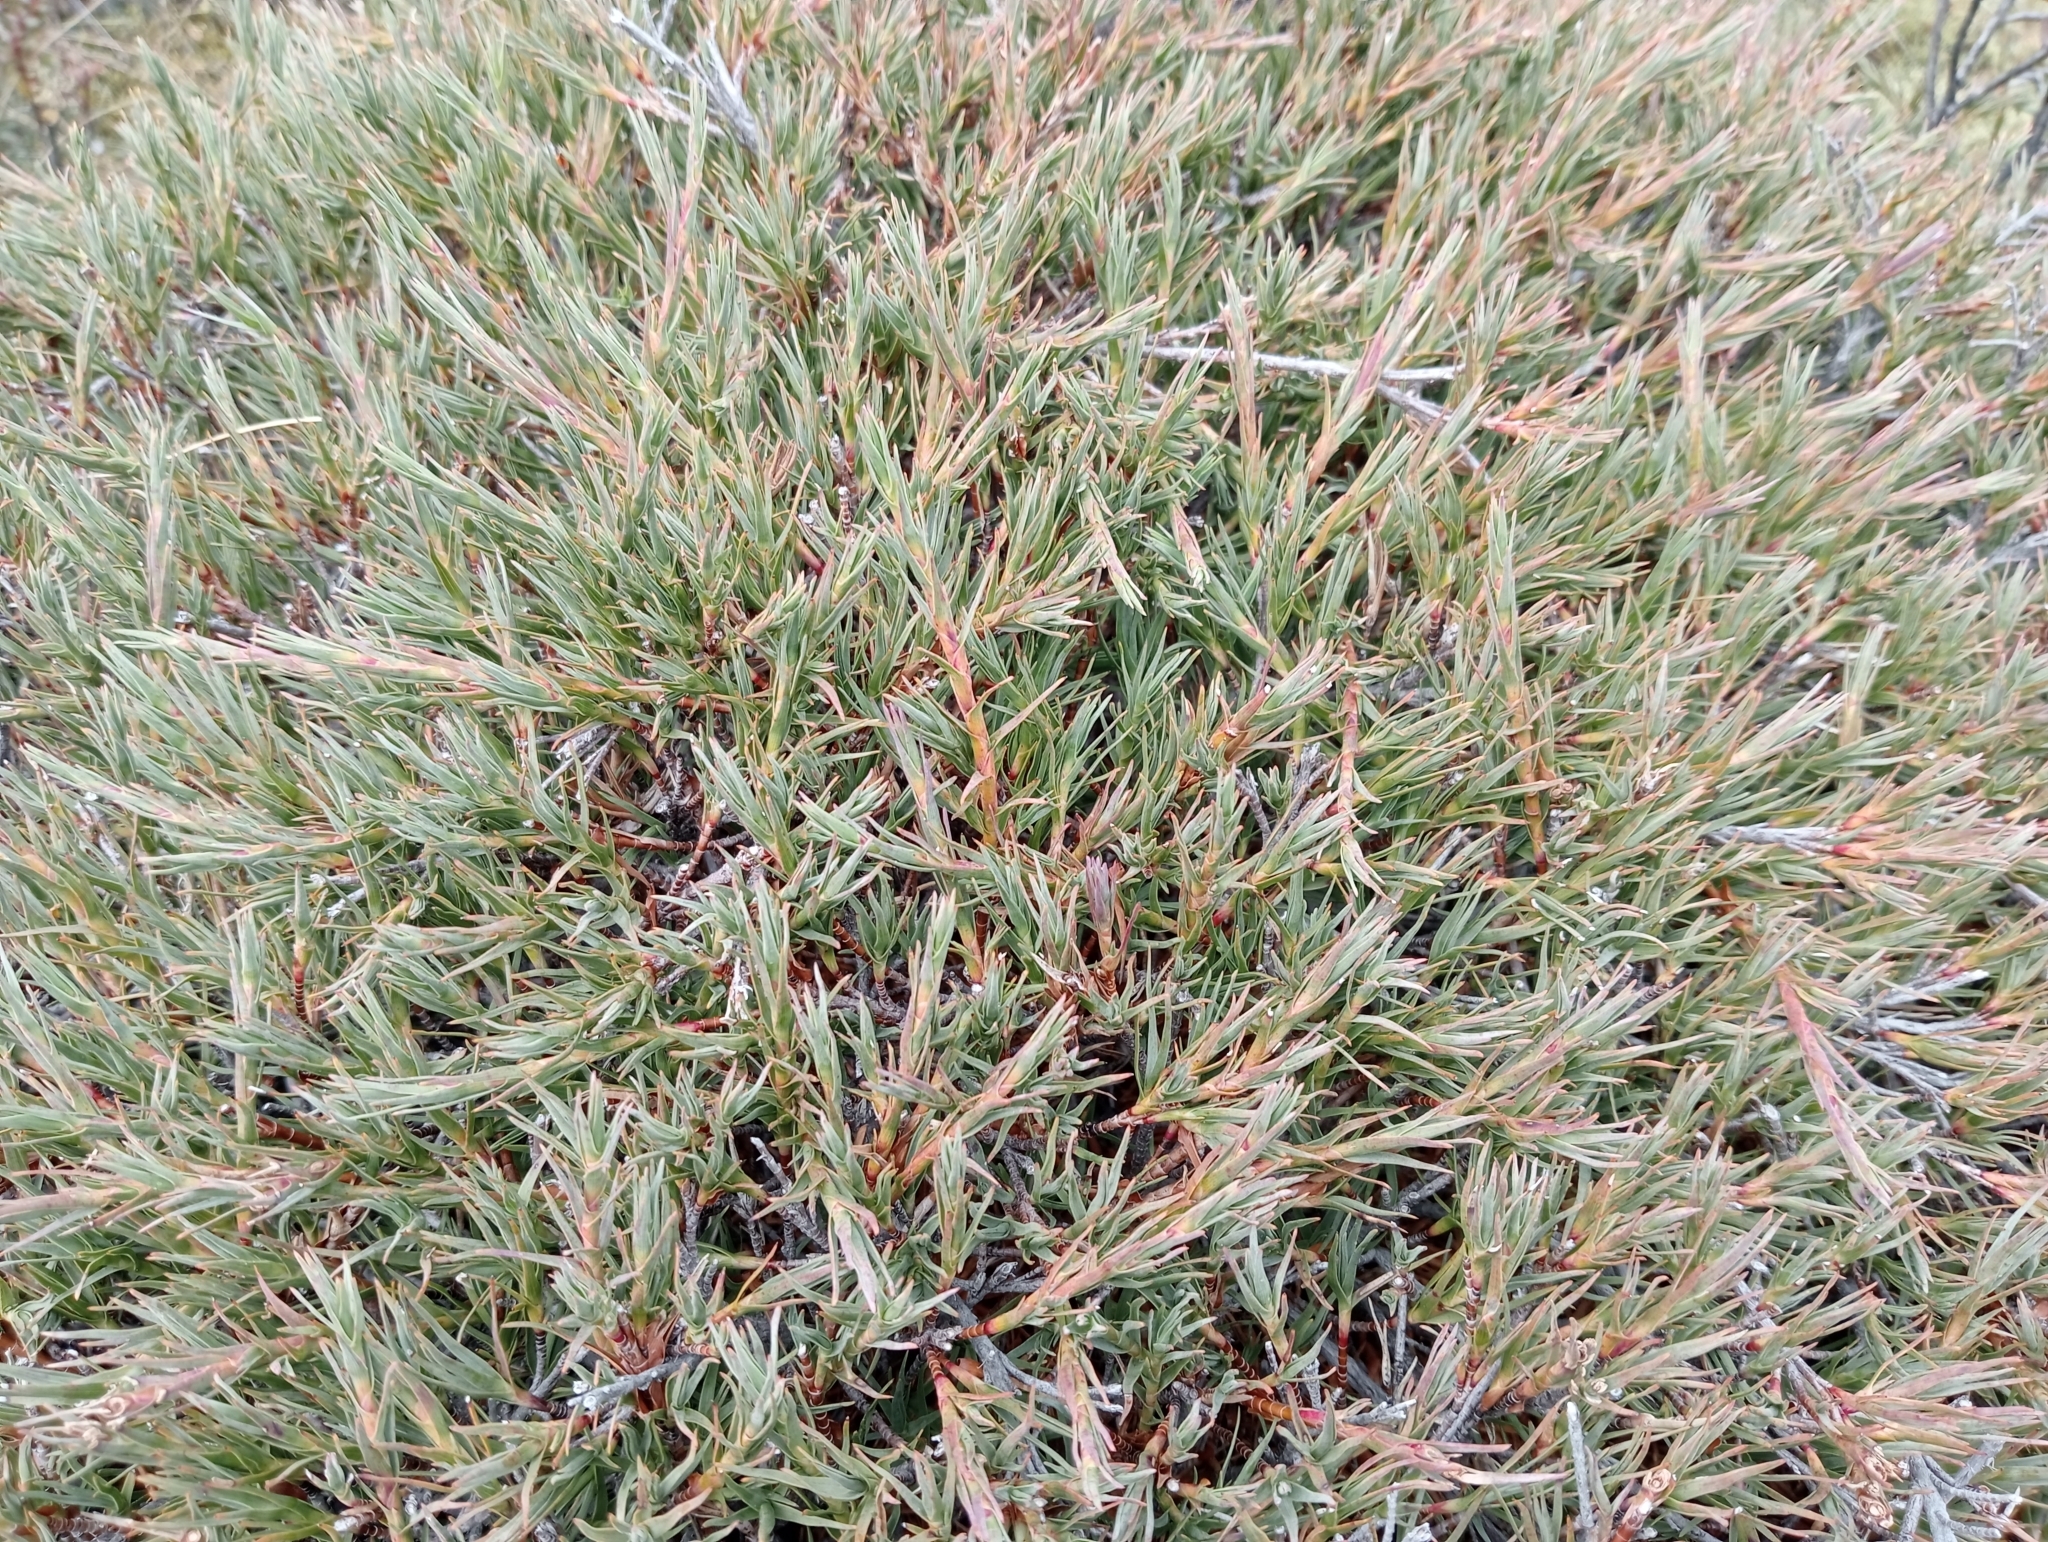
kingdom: Plantae
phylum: Tracheophyta
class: Magnoliopsida
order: Ericales
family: Ericaceae
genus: Dracophyllum
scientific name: Dracophyllum kirkii
